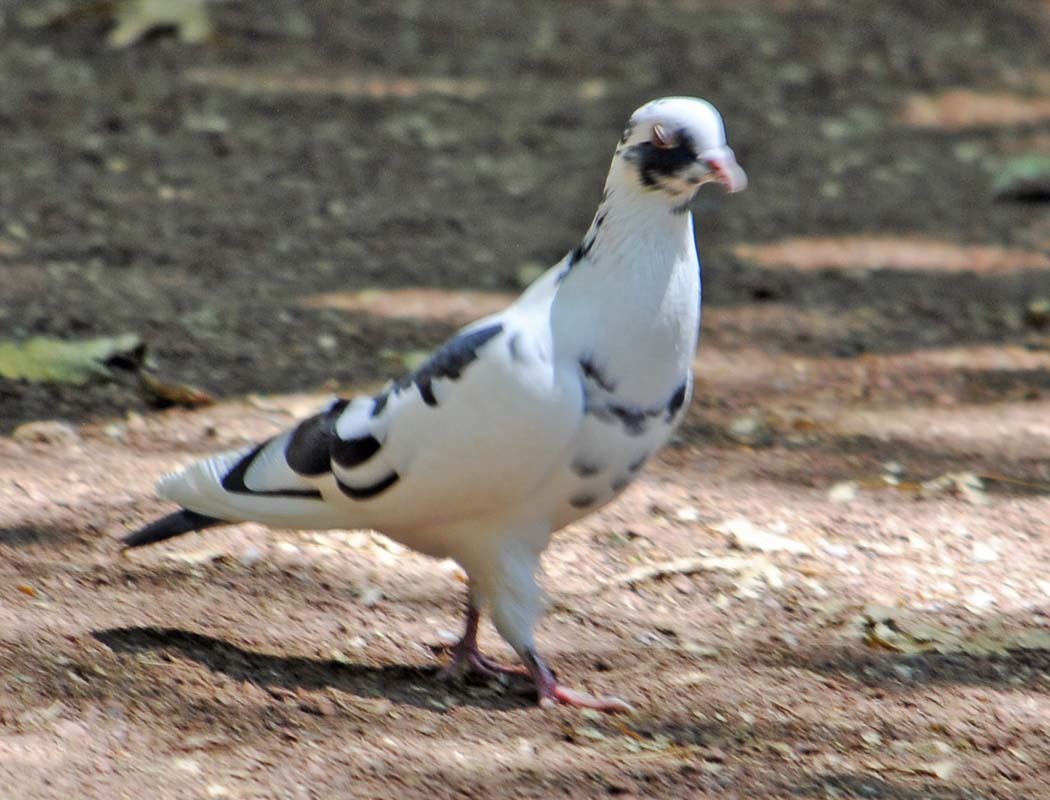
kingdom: Animalia
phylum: Chordata
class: Aves
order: Columbiformes
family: Columbidae
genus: Columba
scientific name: Columba livia
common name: Rock pigeon
